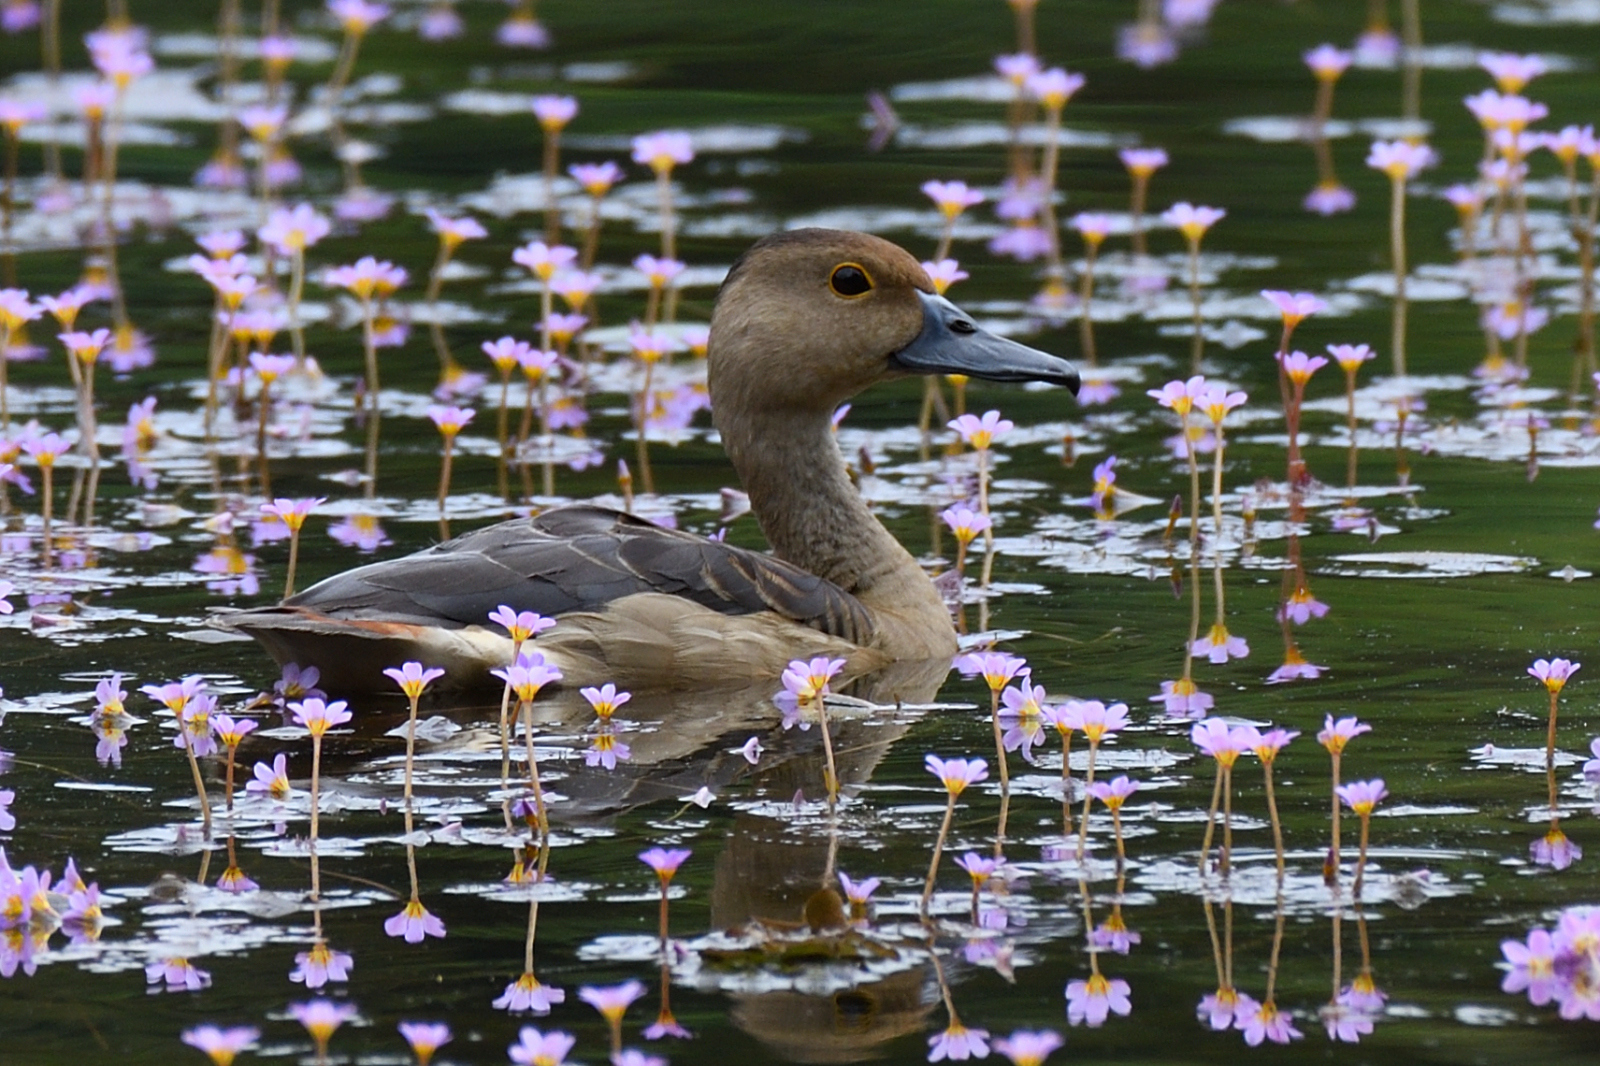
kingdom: Plantae
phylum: Tracheophyta
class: Magnoliopsida
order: Nymphaeales
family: Cabombaceae
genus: Cabomba
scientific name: Cabomba furcata
